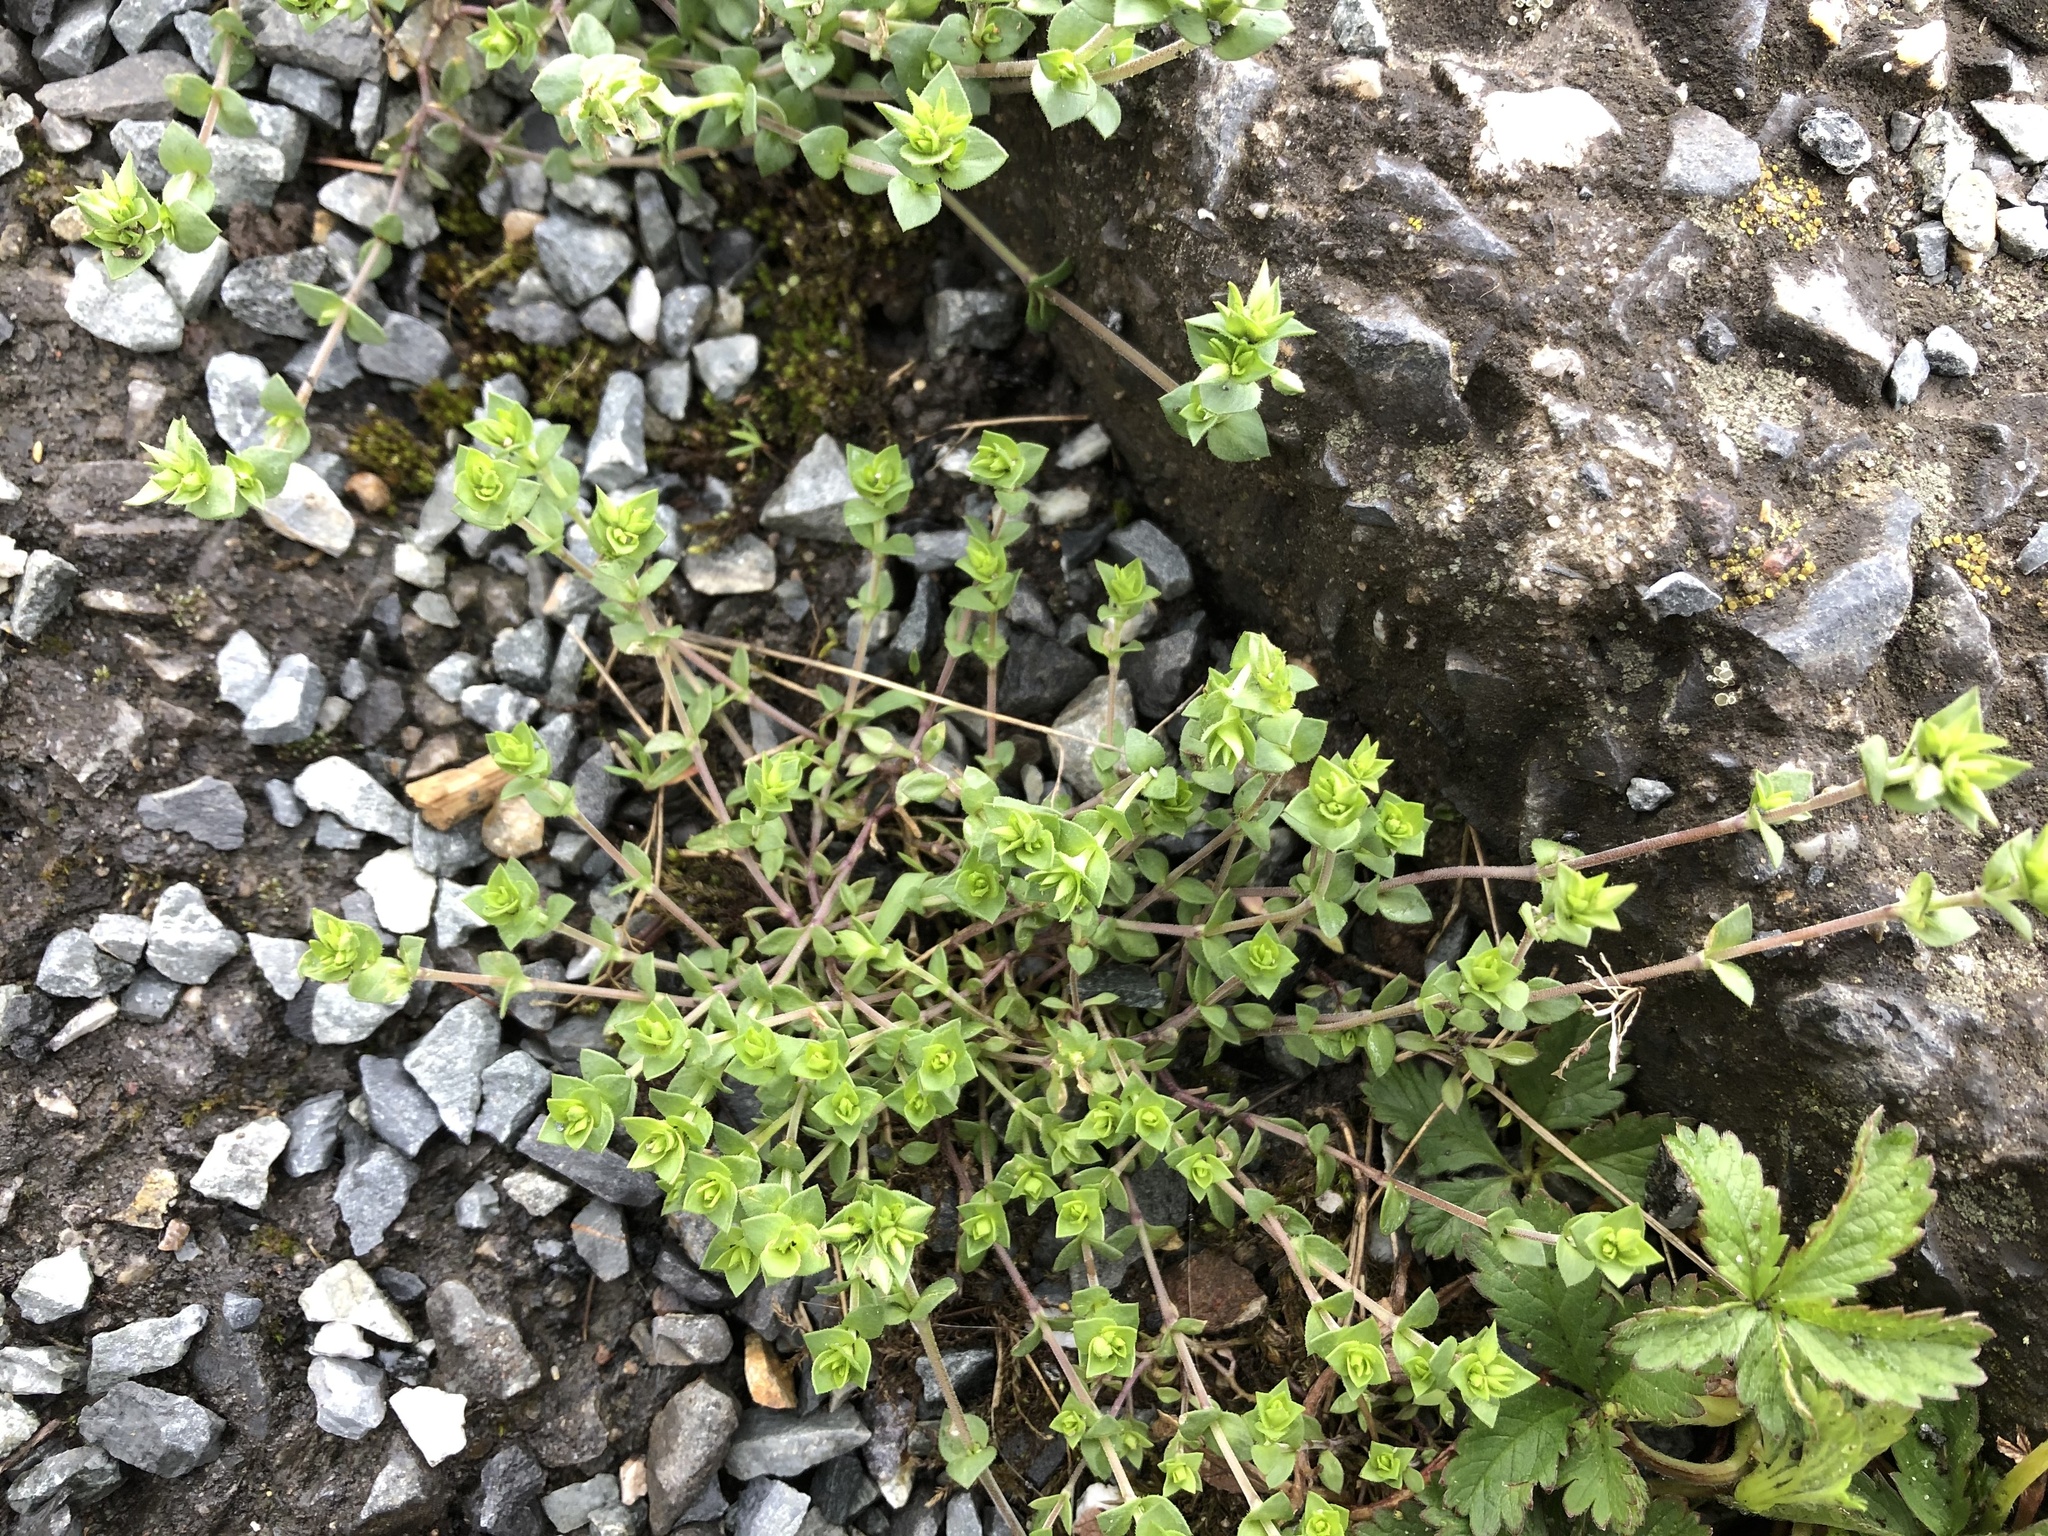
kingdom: Plantae
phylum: Tracheophyta
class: Magnoliopsida
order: Caryophyllales
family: Caryophyllaceae
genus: Arenaria
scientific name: Arenaria serpyllifolia
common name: Thyme-leaved sandwort
